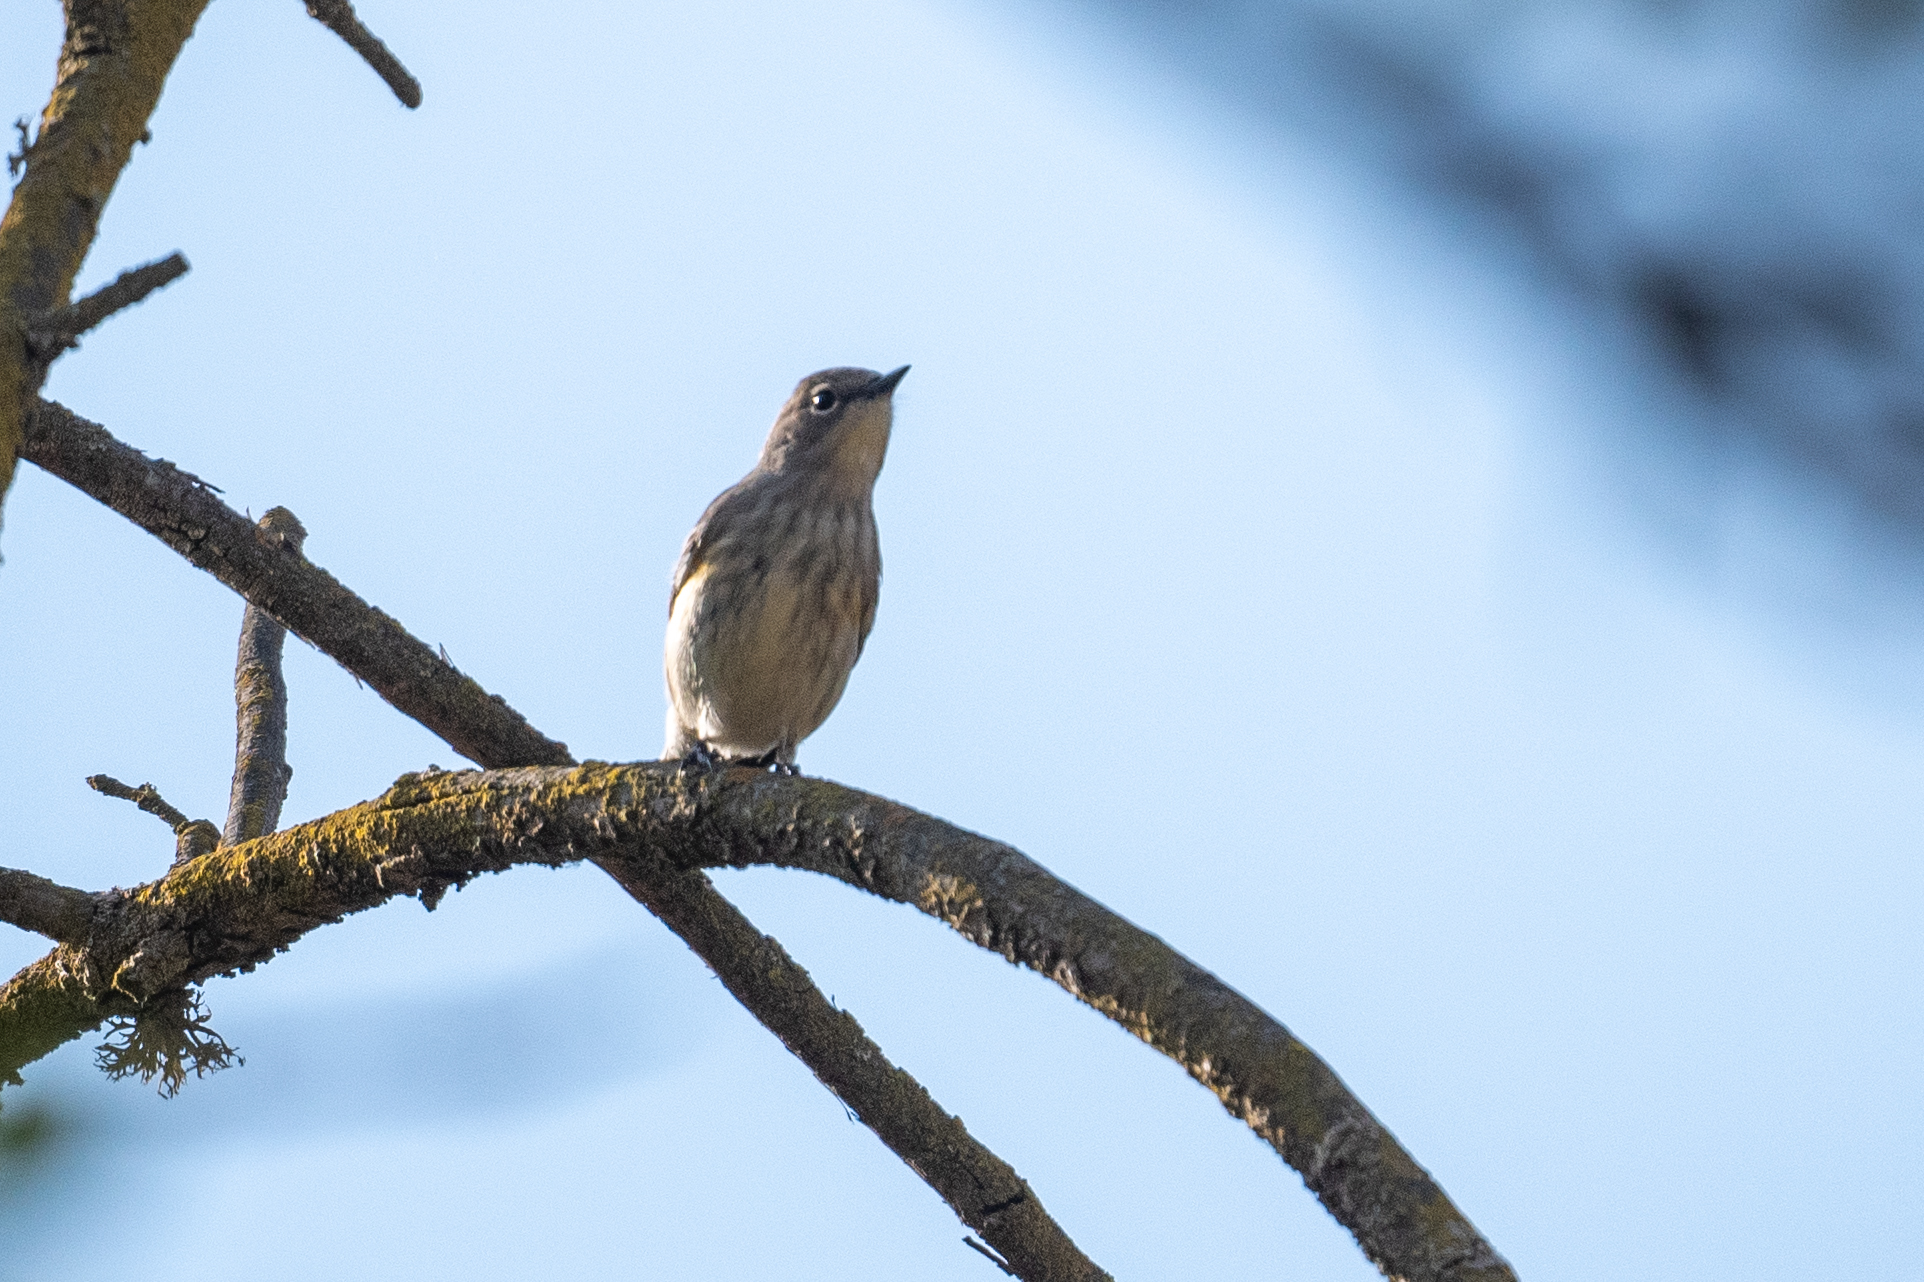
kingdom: Animalia
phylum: Chordata
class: Aves
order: Passeriformes
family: Parulidae
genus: Setophaga
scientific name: Setophaga coronata
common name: Myrtle warbler
